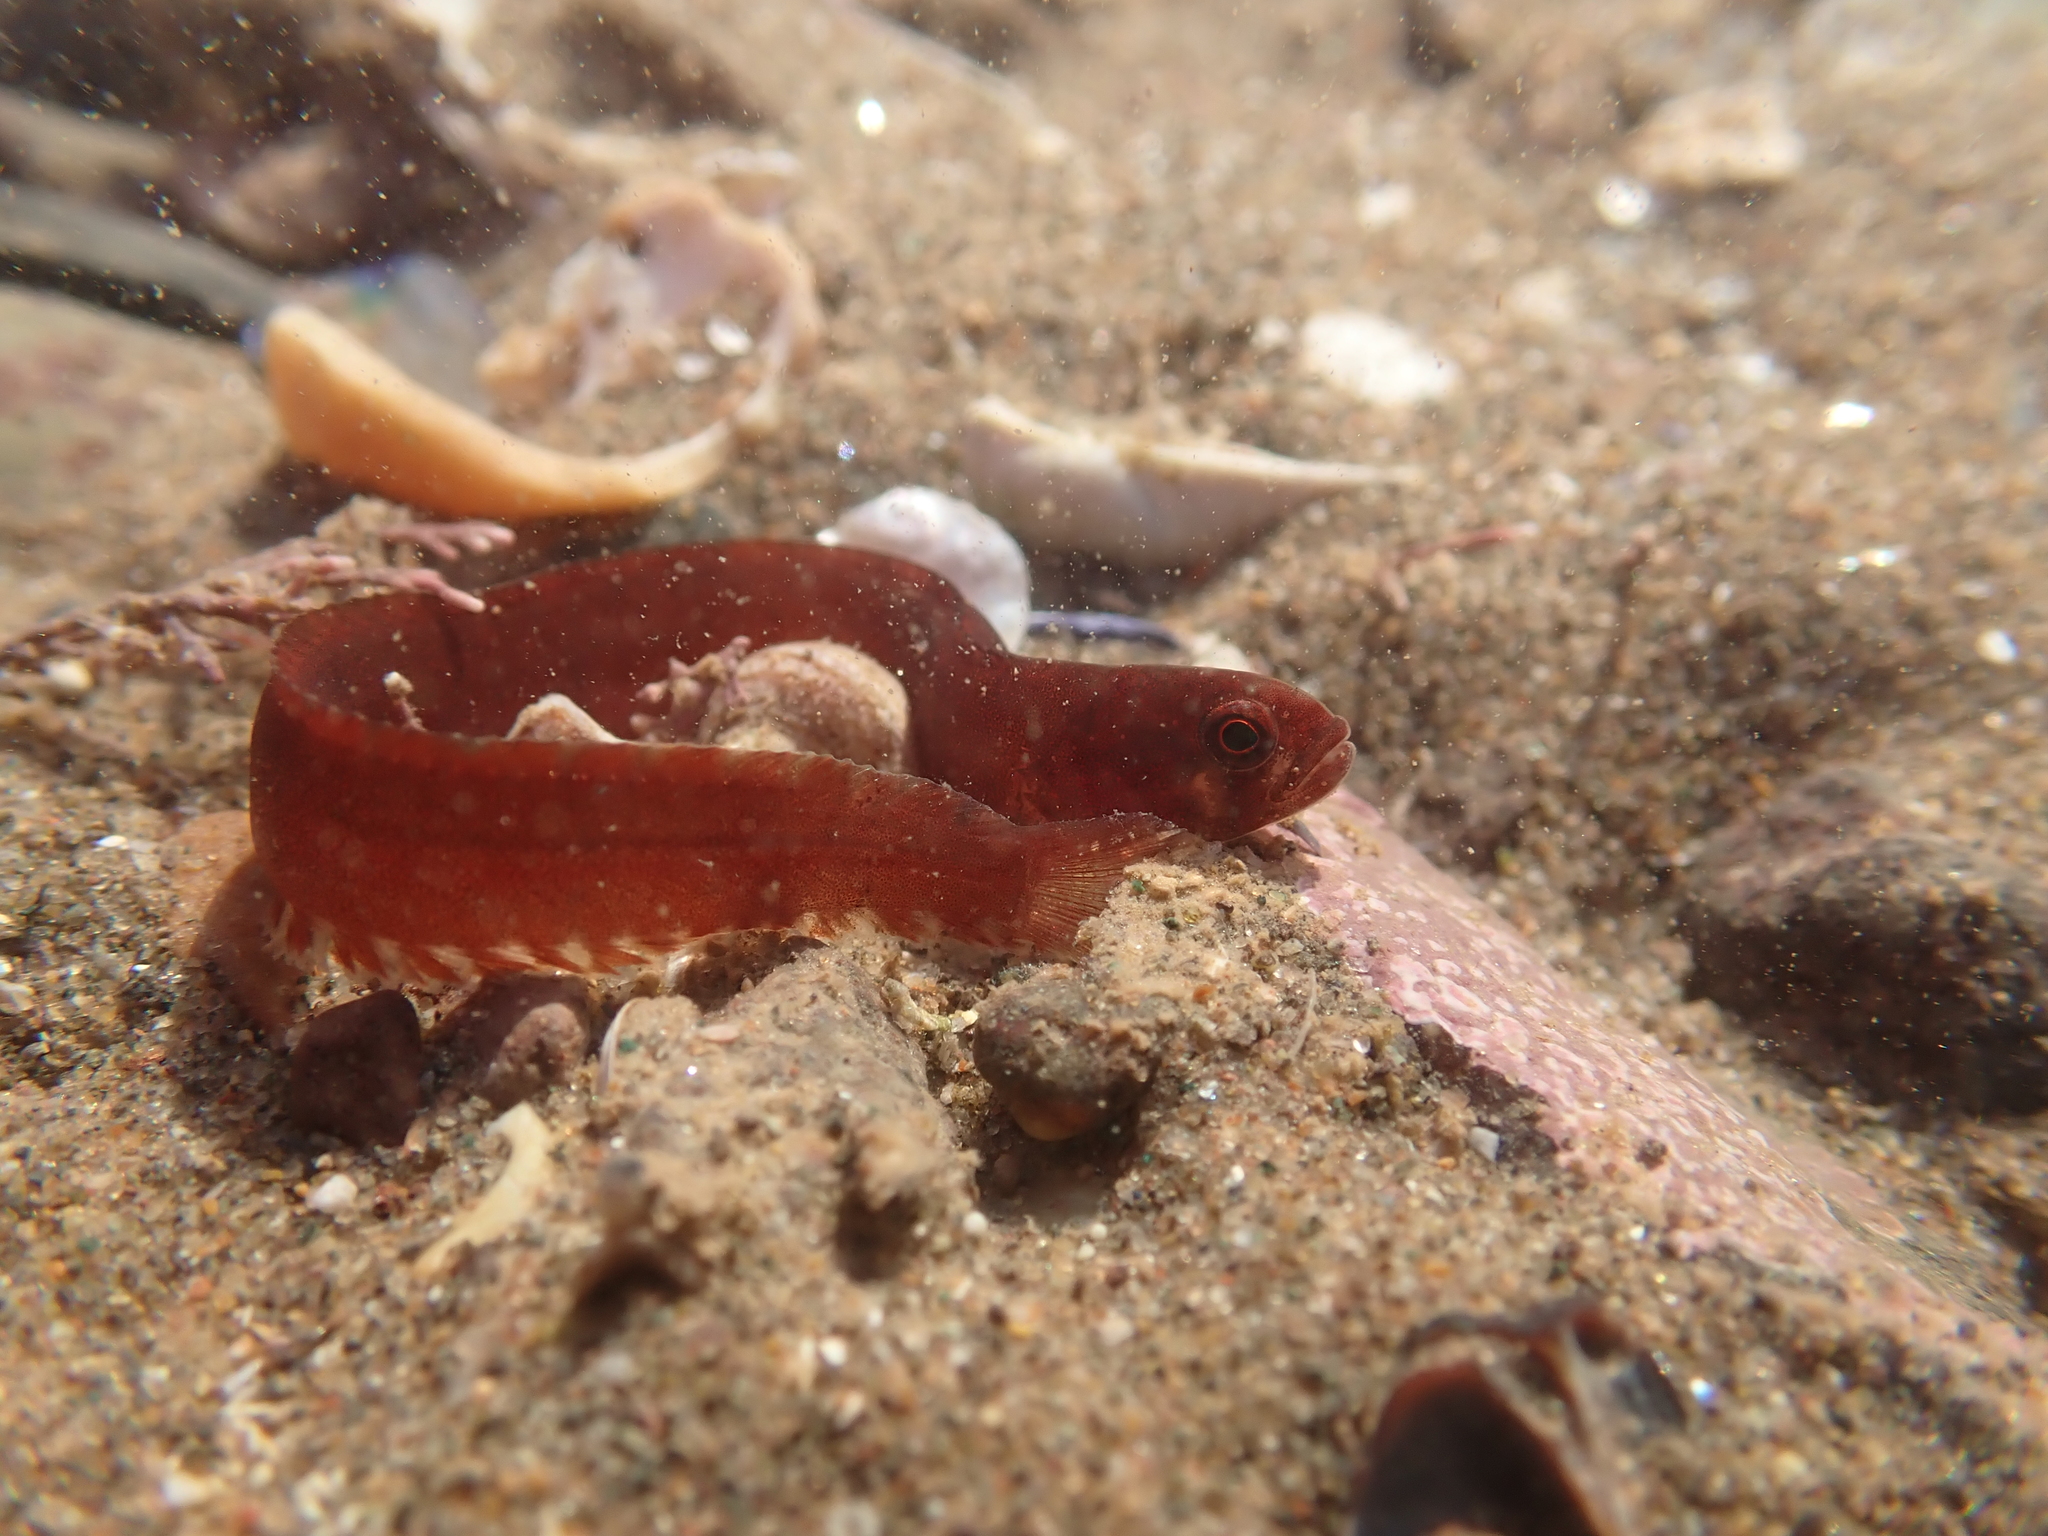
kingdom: Animalia
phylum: Chordata
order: Perciformes
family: Pholidae
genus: Pholis
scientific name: Pholis gunnellus
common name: Butterfish
